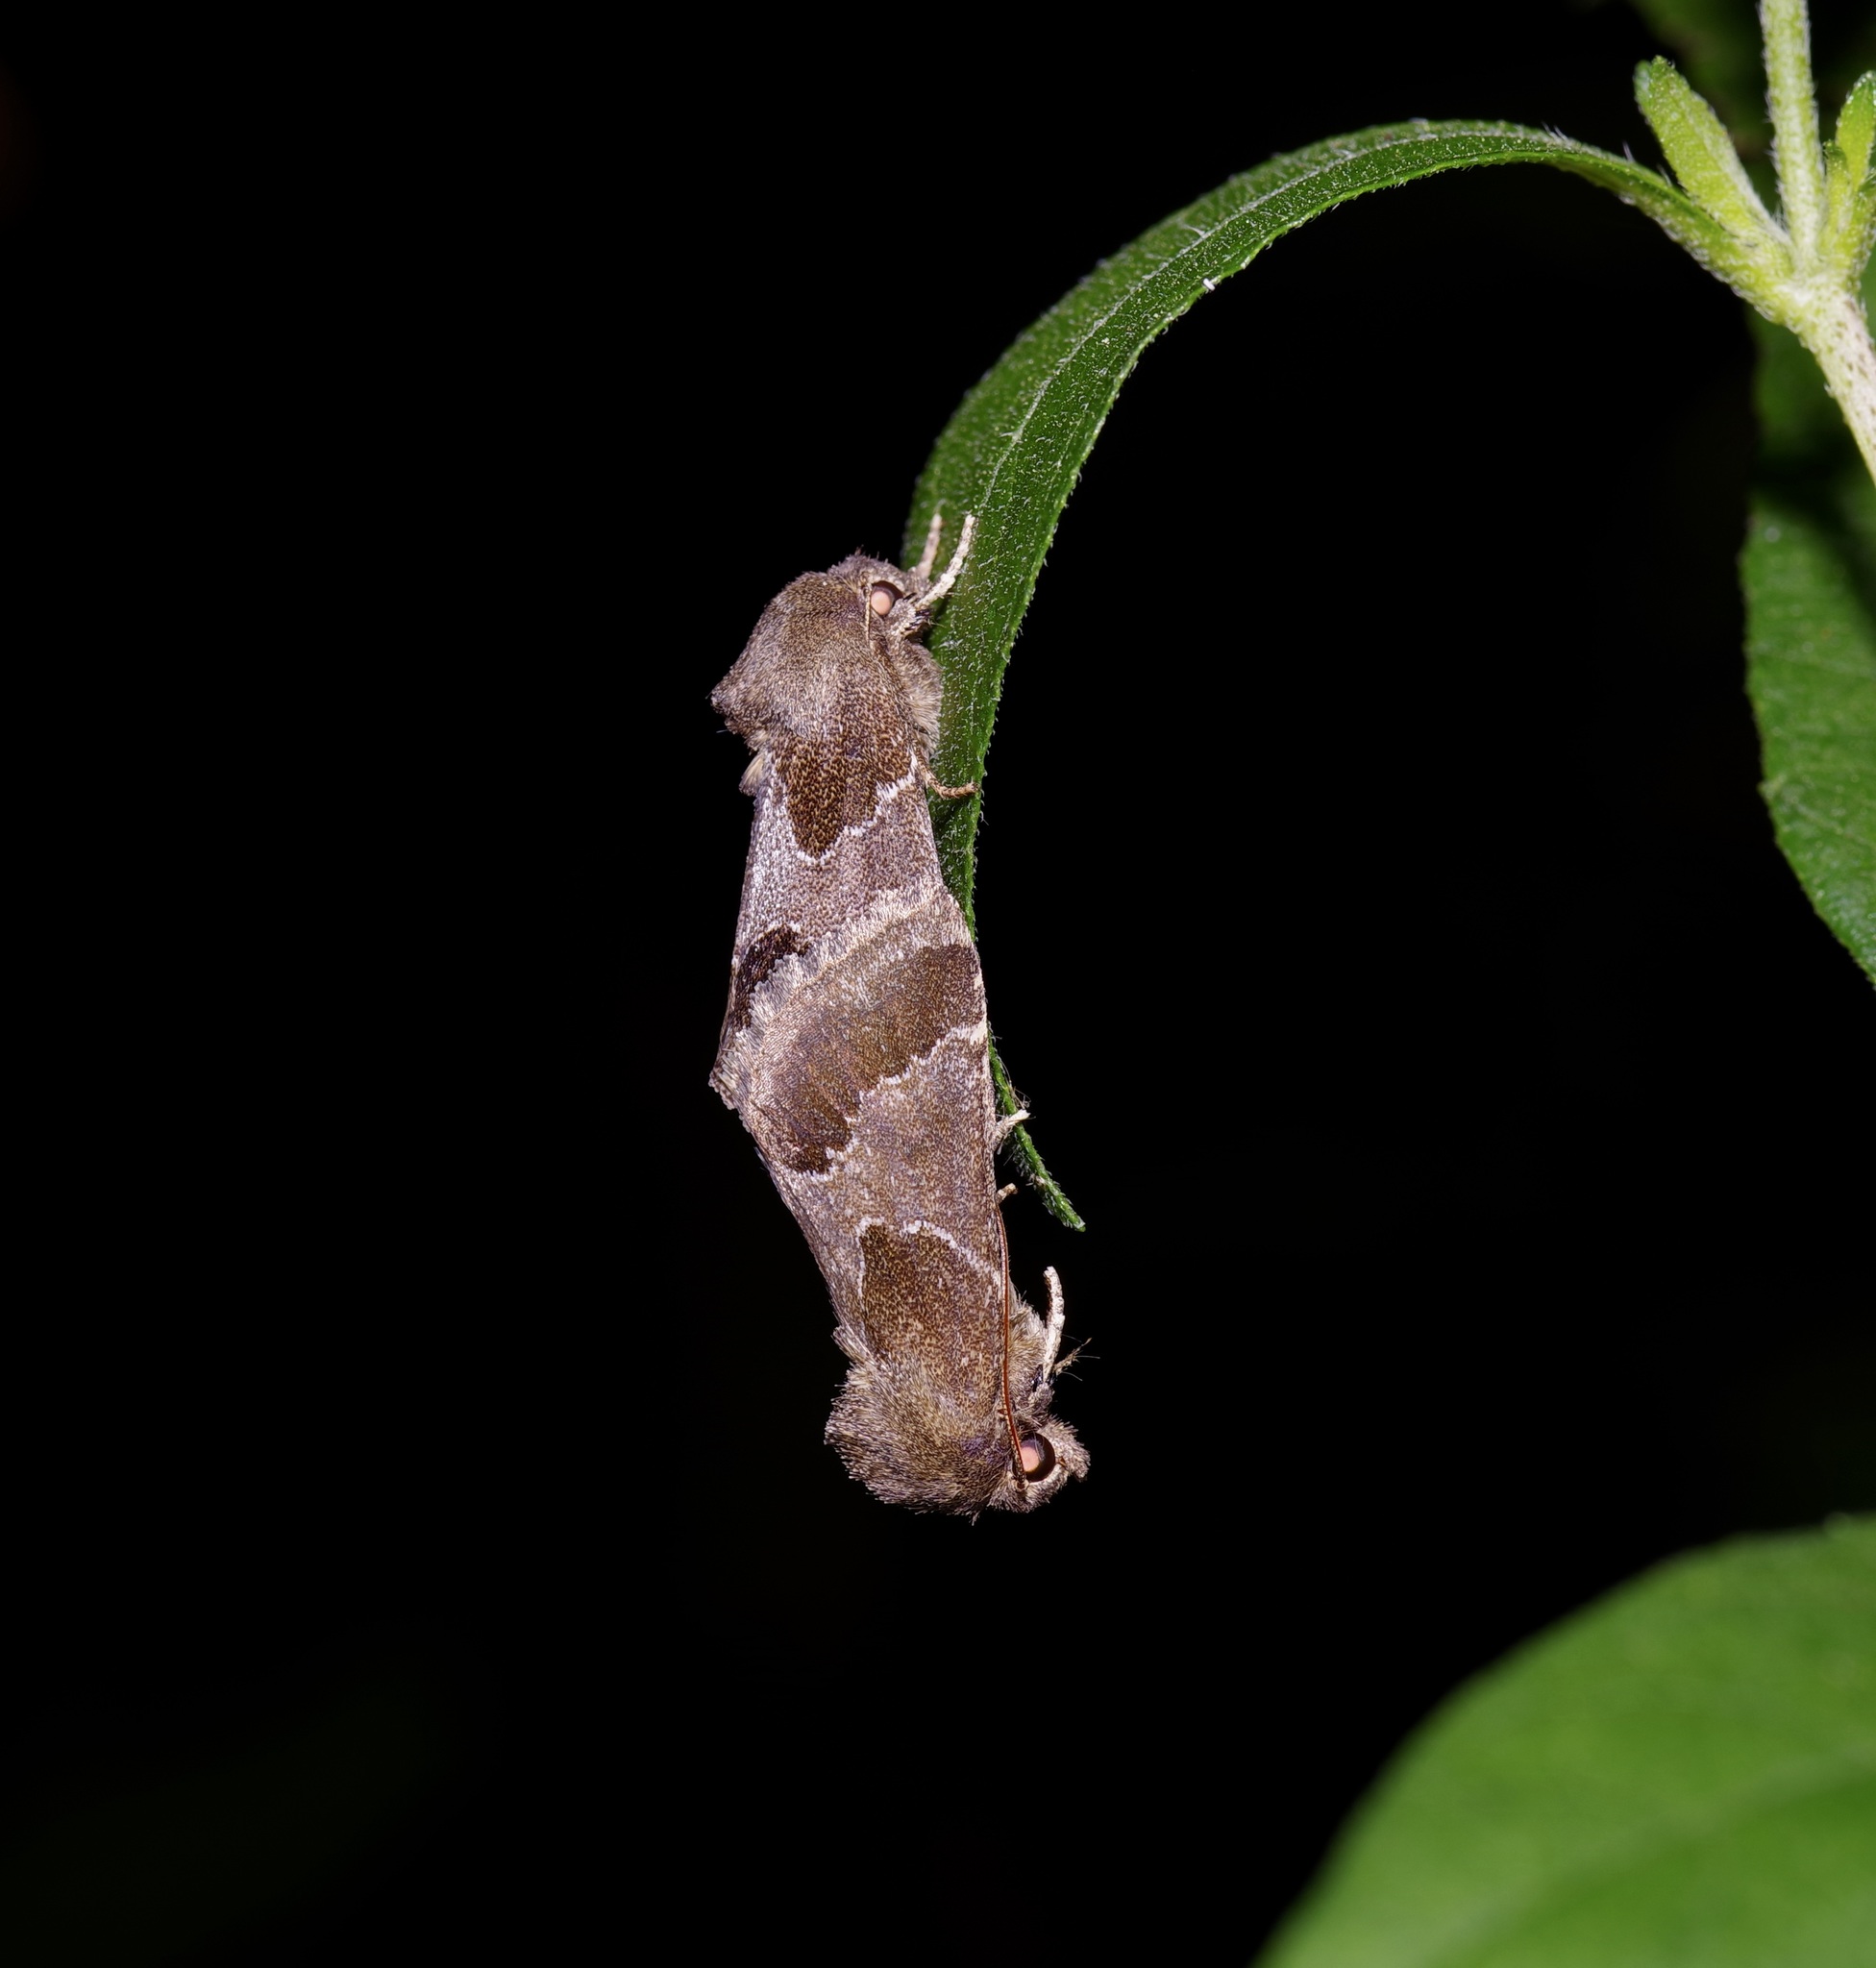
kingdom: Animalia
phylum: Arthropoda
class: Insecta
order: Lepidoptera
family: Noctuidae
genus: Schinia
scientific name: Schinia thoreaui
